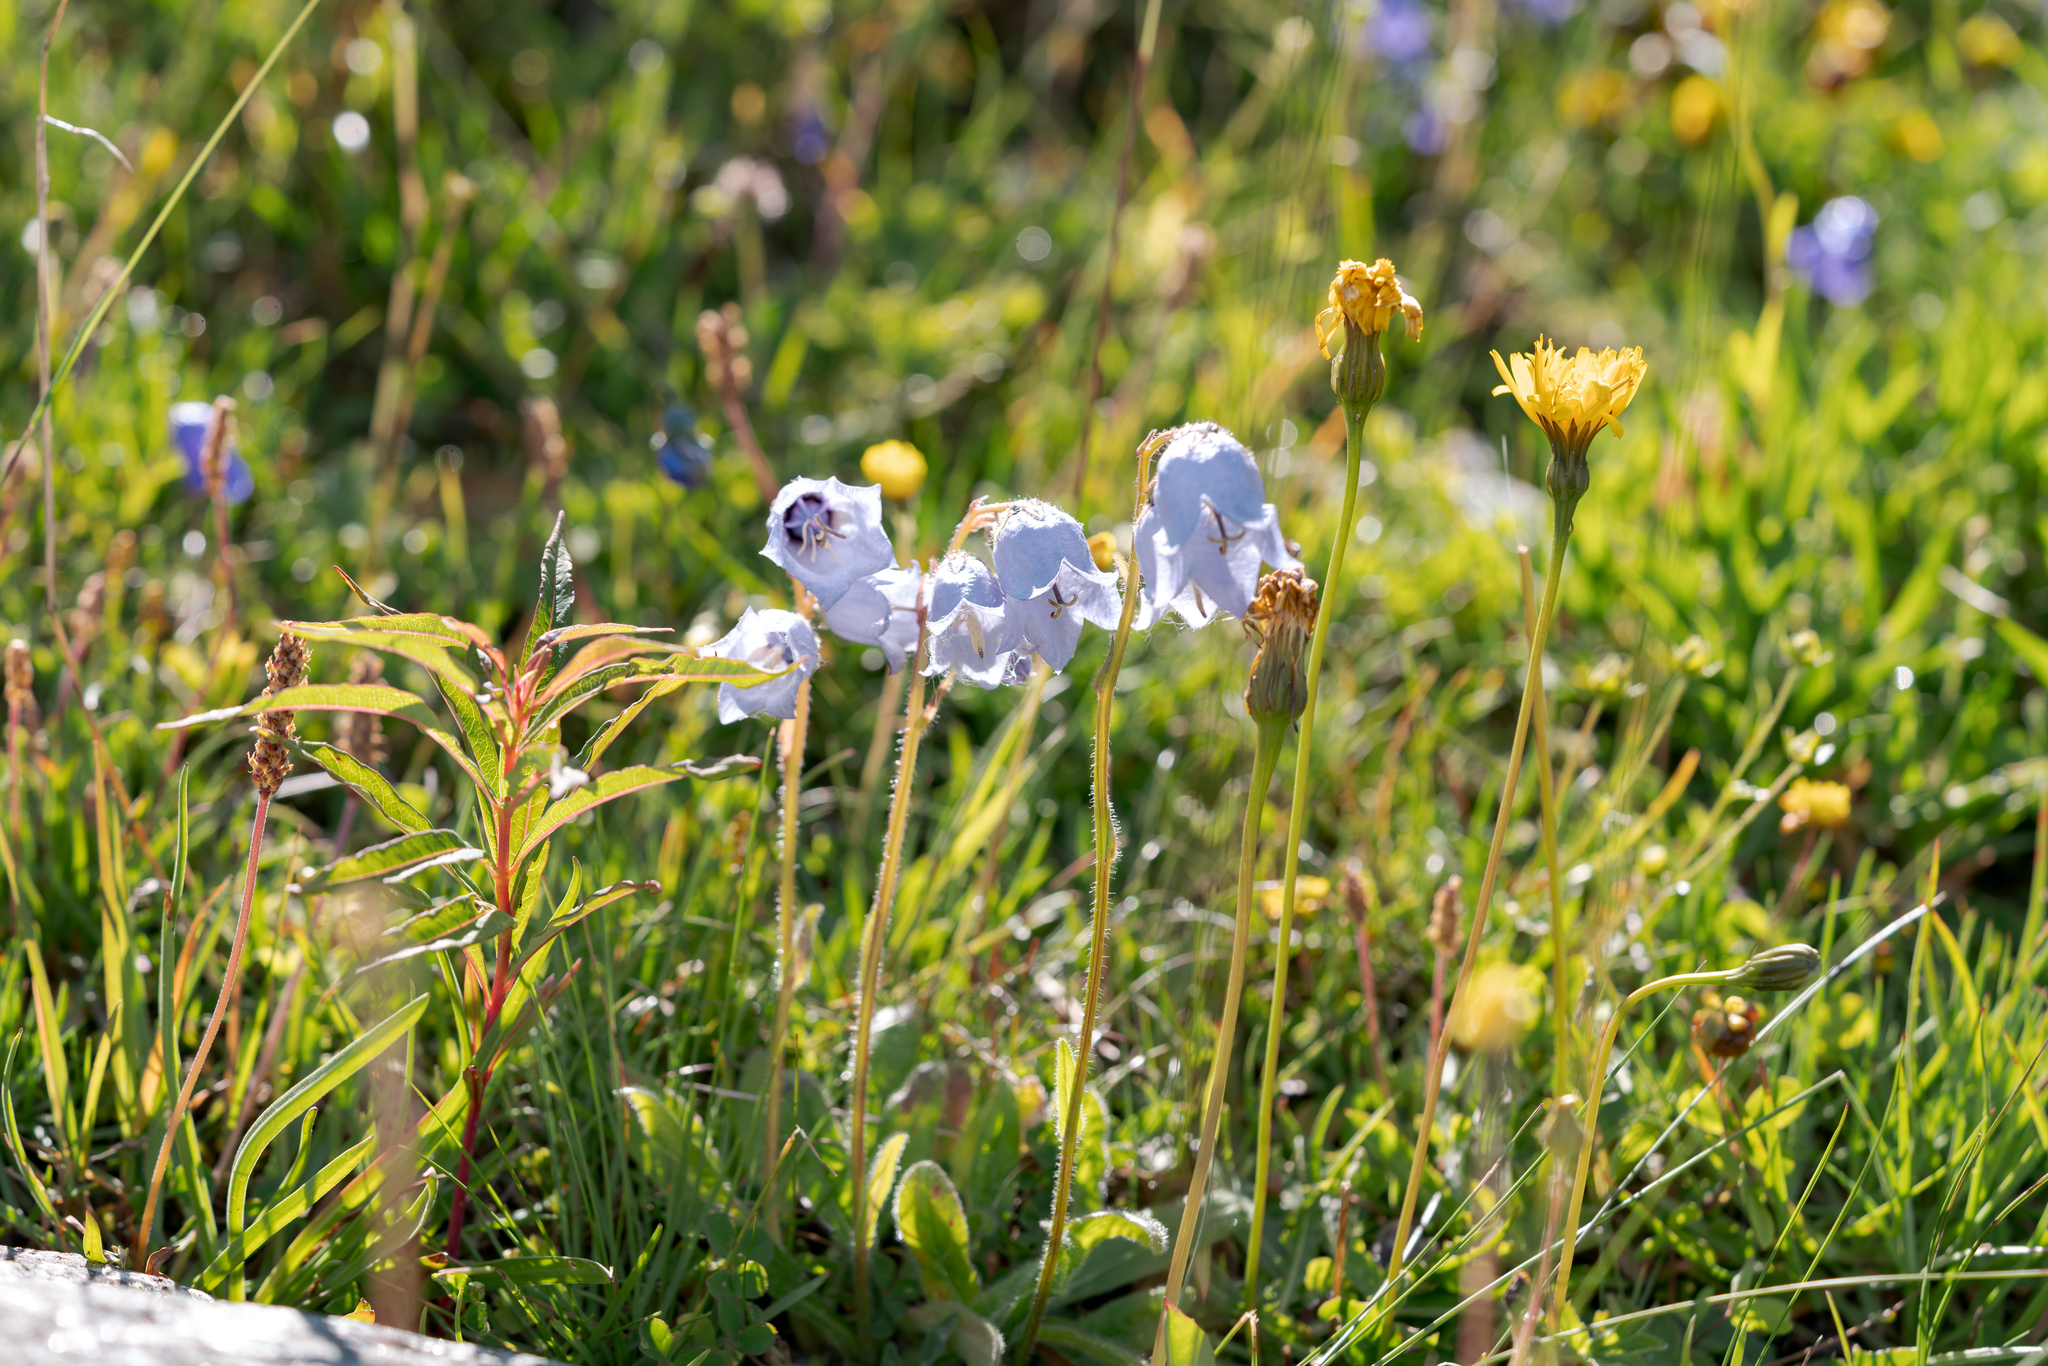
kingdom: Plantae
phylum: Tracheophyta
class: Magnoliopsida
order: Asterales
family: Campanulaceae
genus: Campanula
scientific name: Campanula barbata
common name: Bearded bellflower
